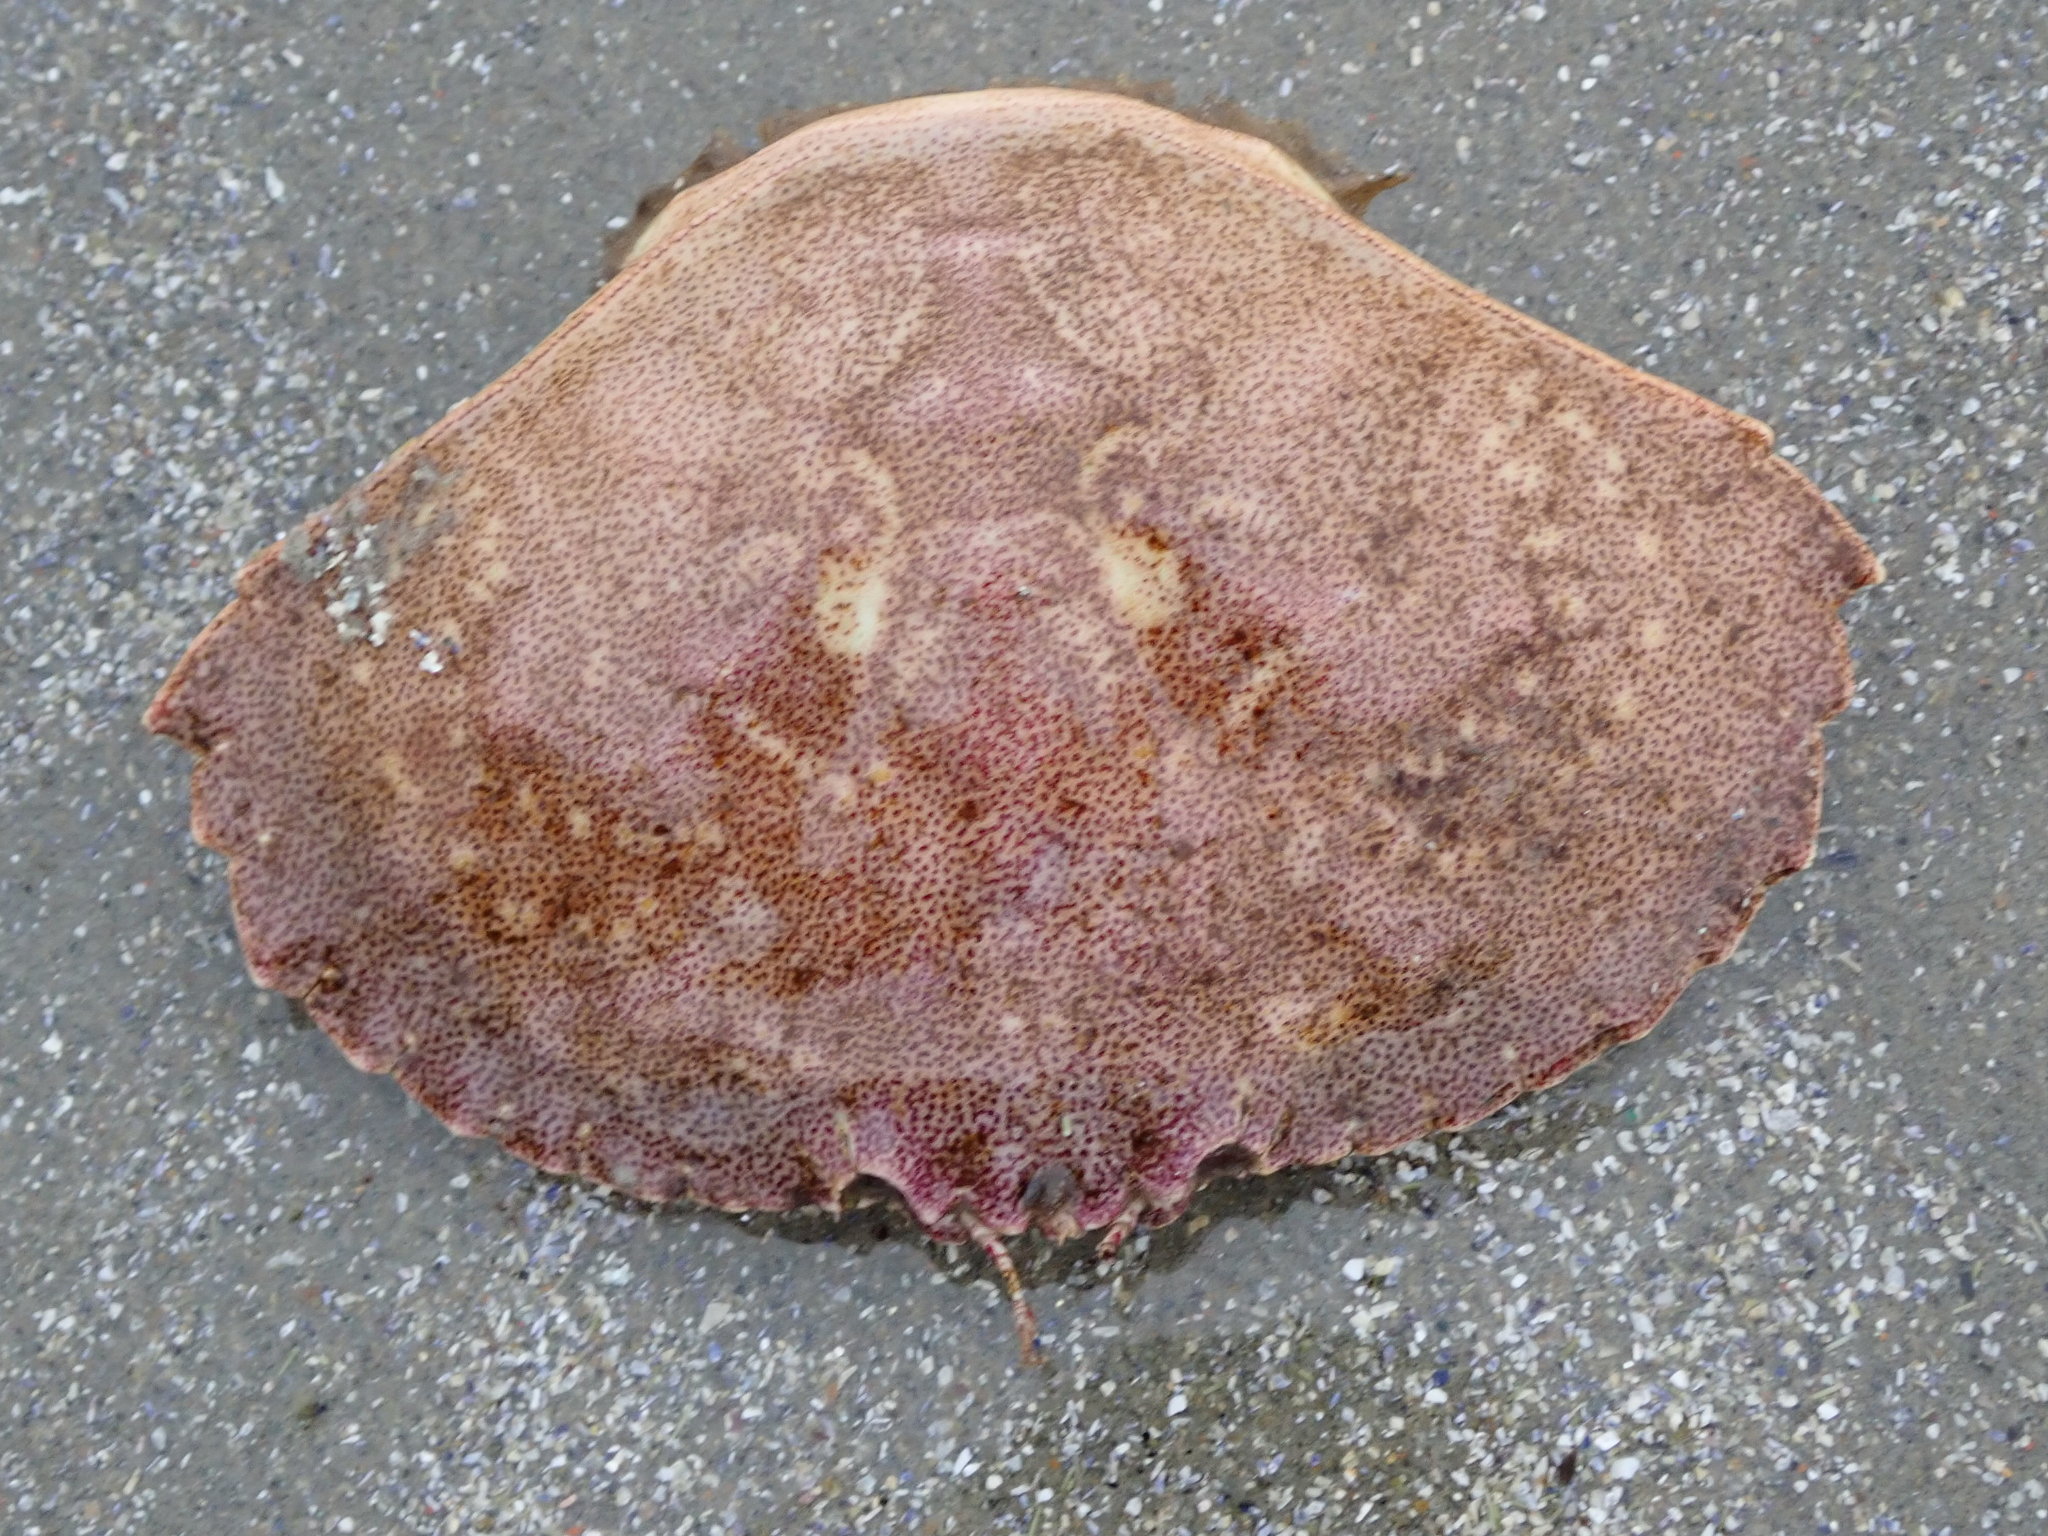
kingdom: Animalia
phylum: Arthropoda
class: Malacostraca
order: Decapoda
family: Cancridae
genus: Cancer
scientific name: Cancer borealis
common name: Jonah crab
